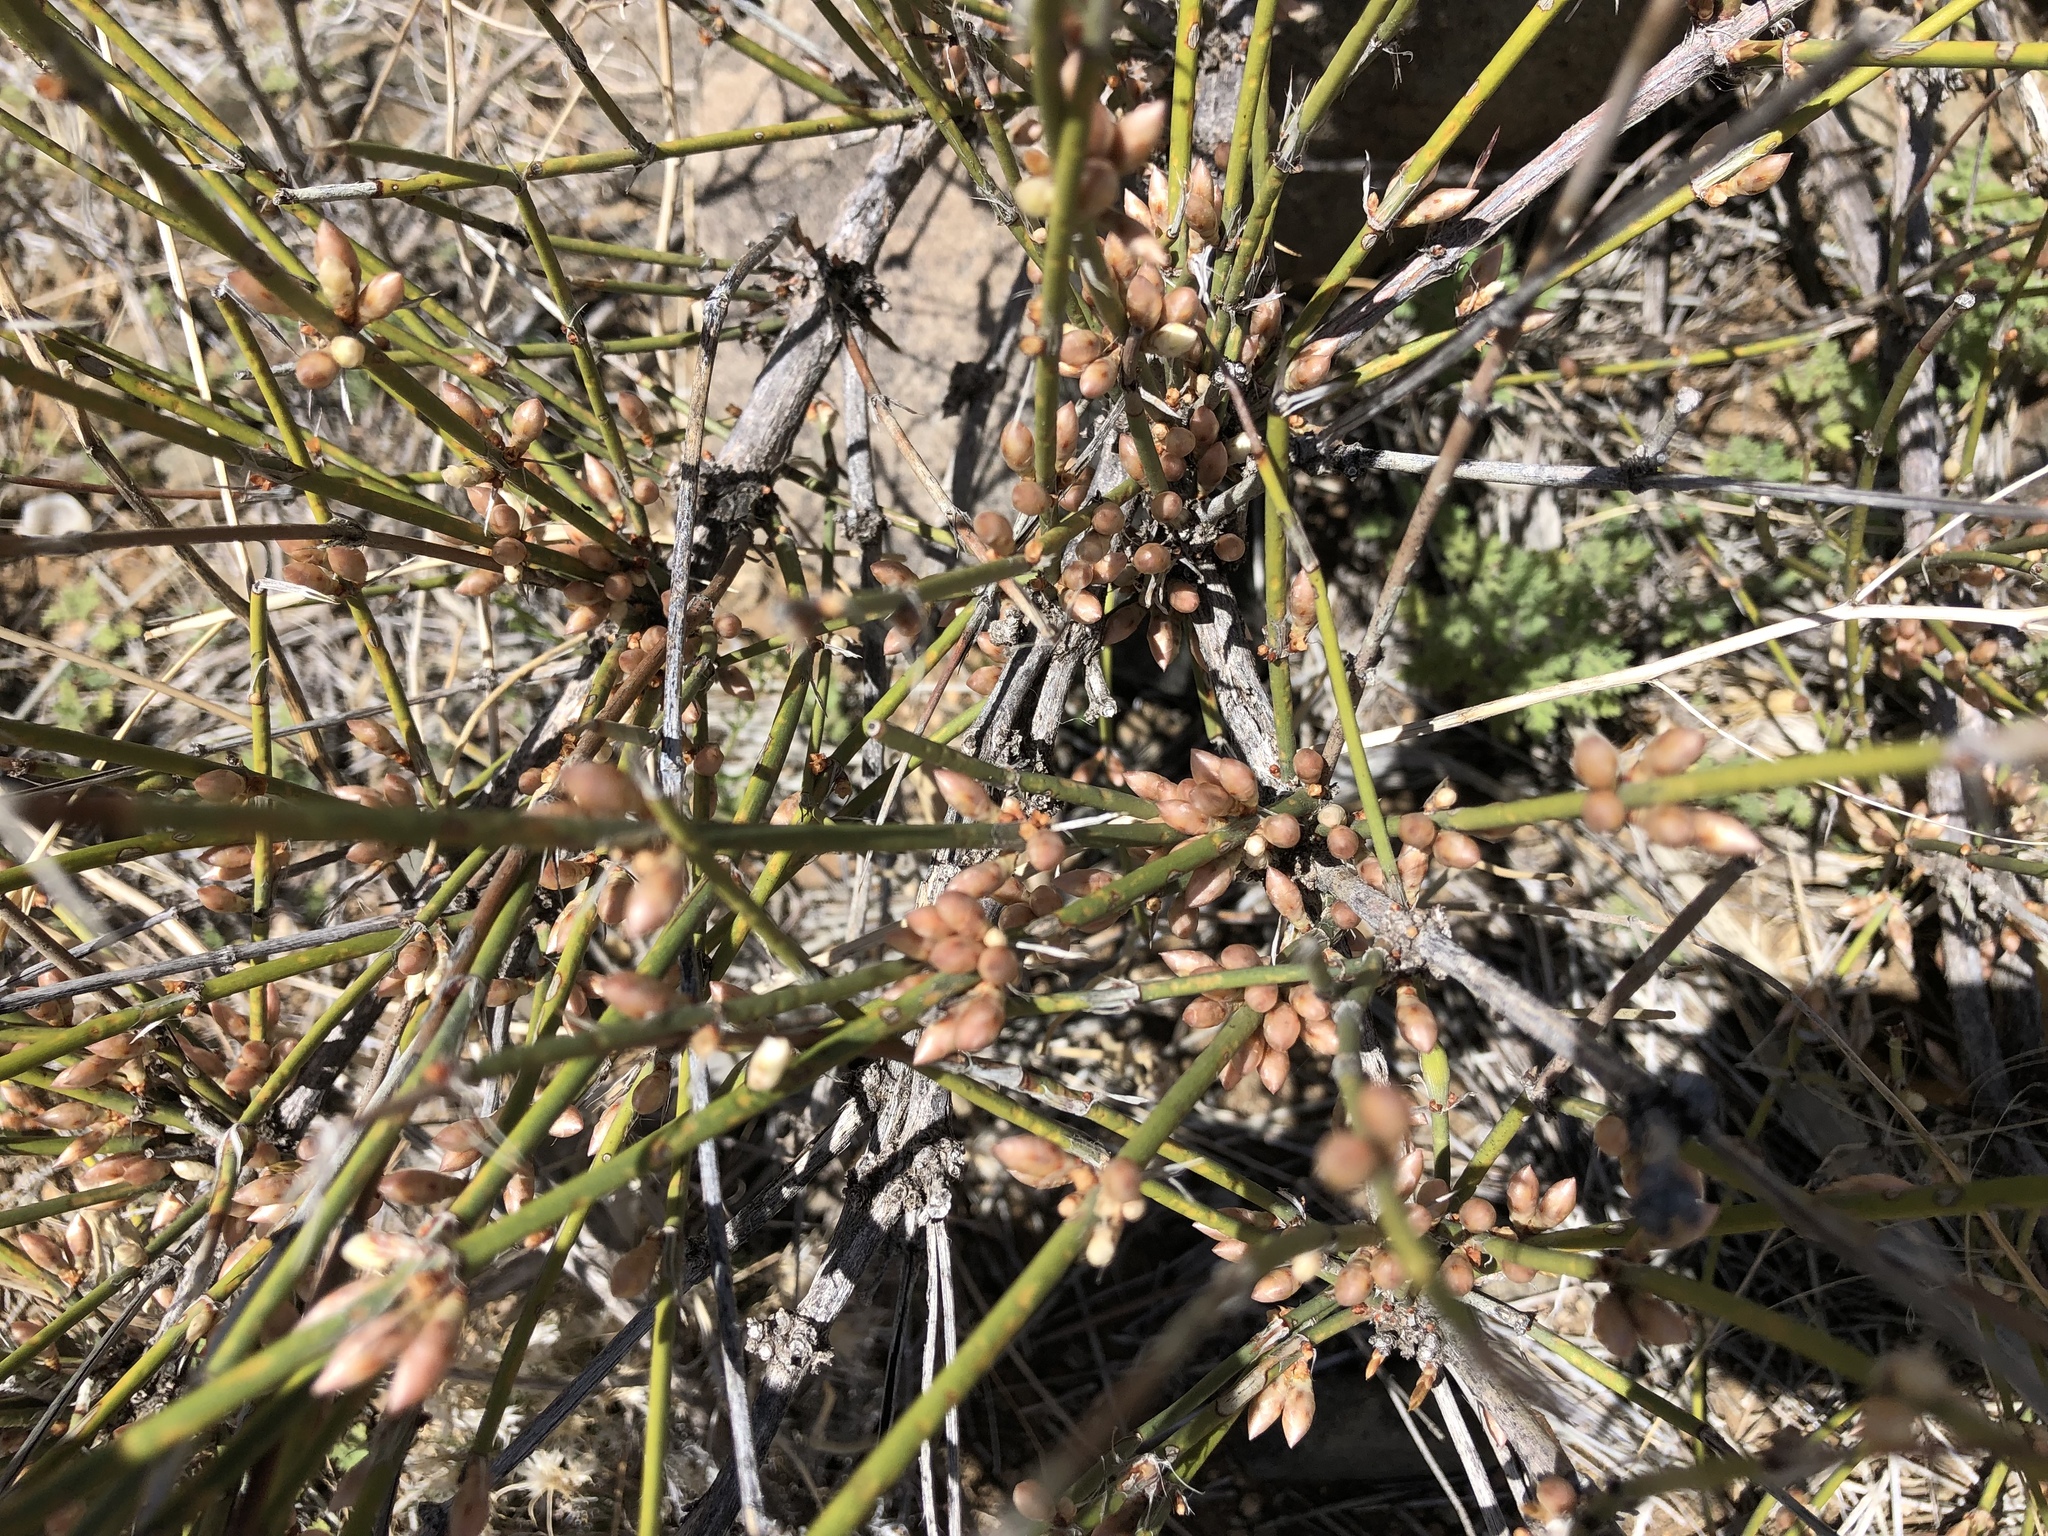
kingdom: Plantae
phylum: Tracheophyta
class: Gnetopsida
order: Ephedrales
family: Ephedraceae
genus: Ephedra
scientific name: Ephedra trifurca
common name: Mexican-tea
